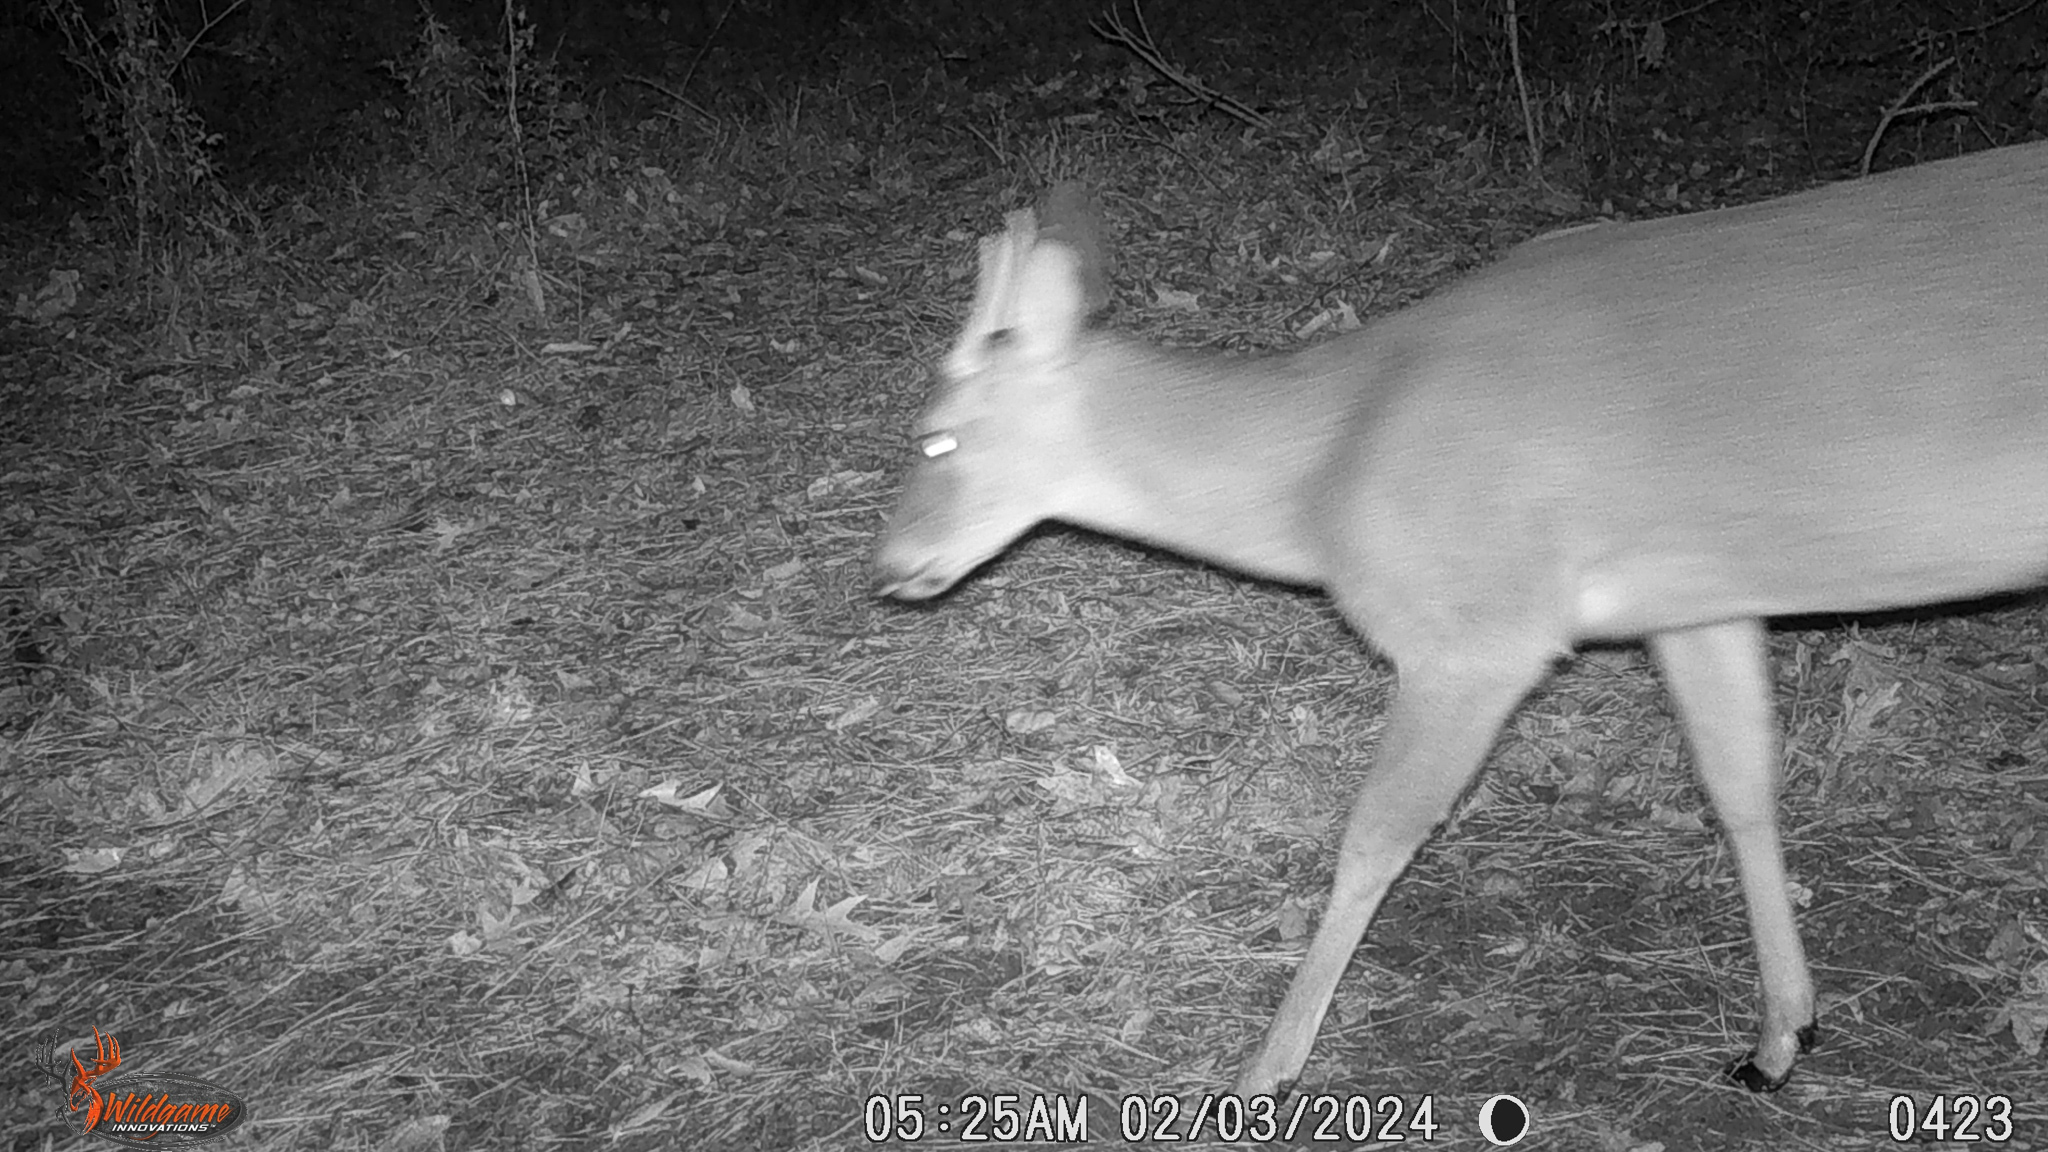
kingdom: Animalia
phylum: Chordata
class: Mammalia
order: Artiodactyla
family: Cervidae
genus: Odocoileus
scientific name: Odocoileus virginianus
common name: White-tailed deer
